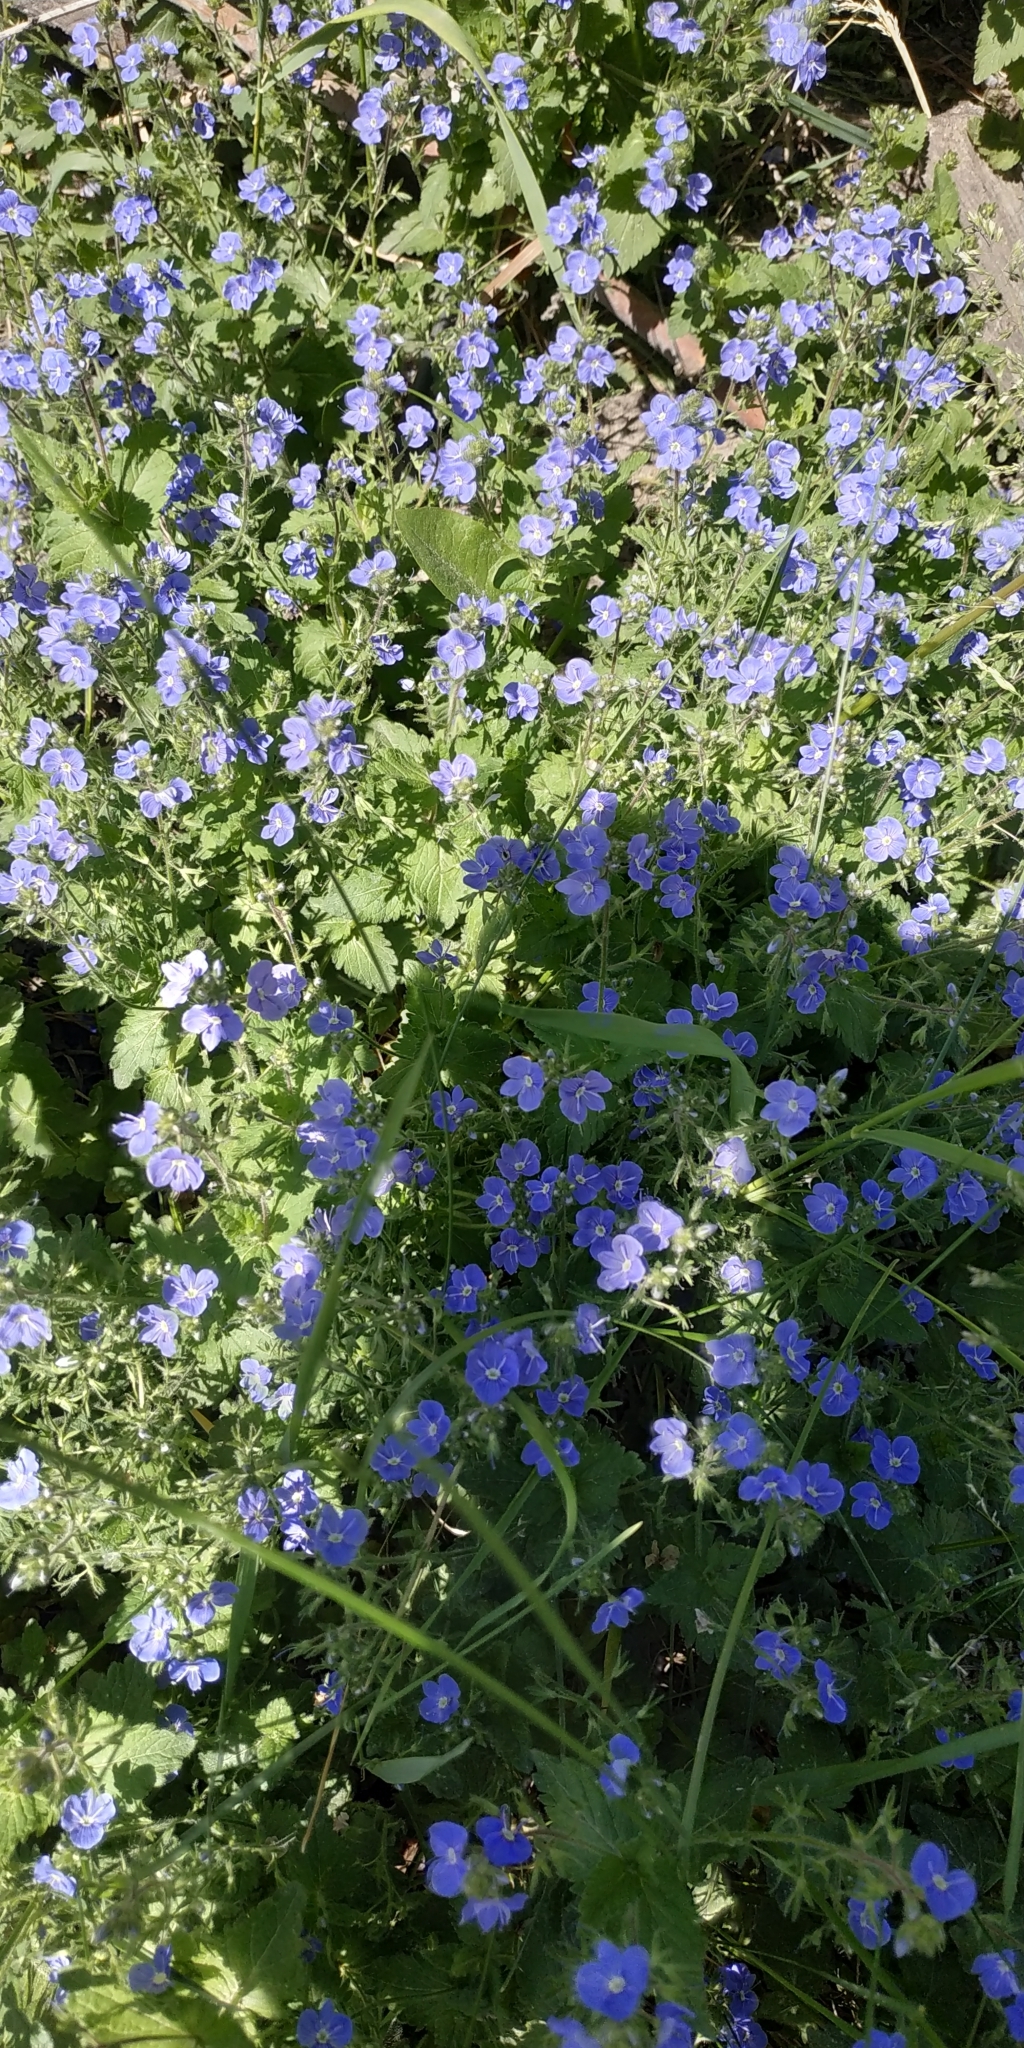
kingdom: Plantae
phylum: Tracheophyta
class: Magnoliopsida
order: Lamiales
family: Plantaginaceae
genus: Veronica
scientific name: Veronica chamaedrys
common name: Germander speedwell
